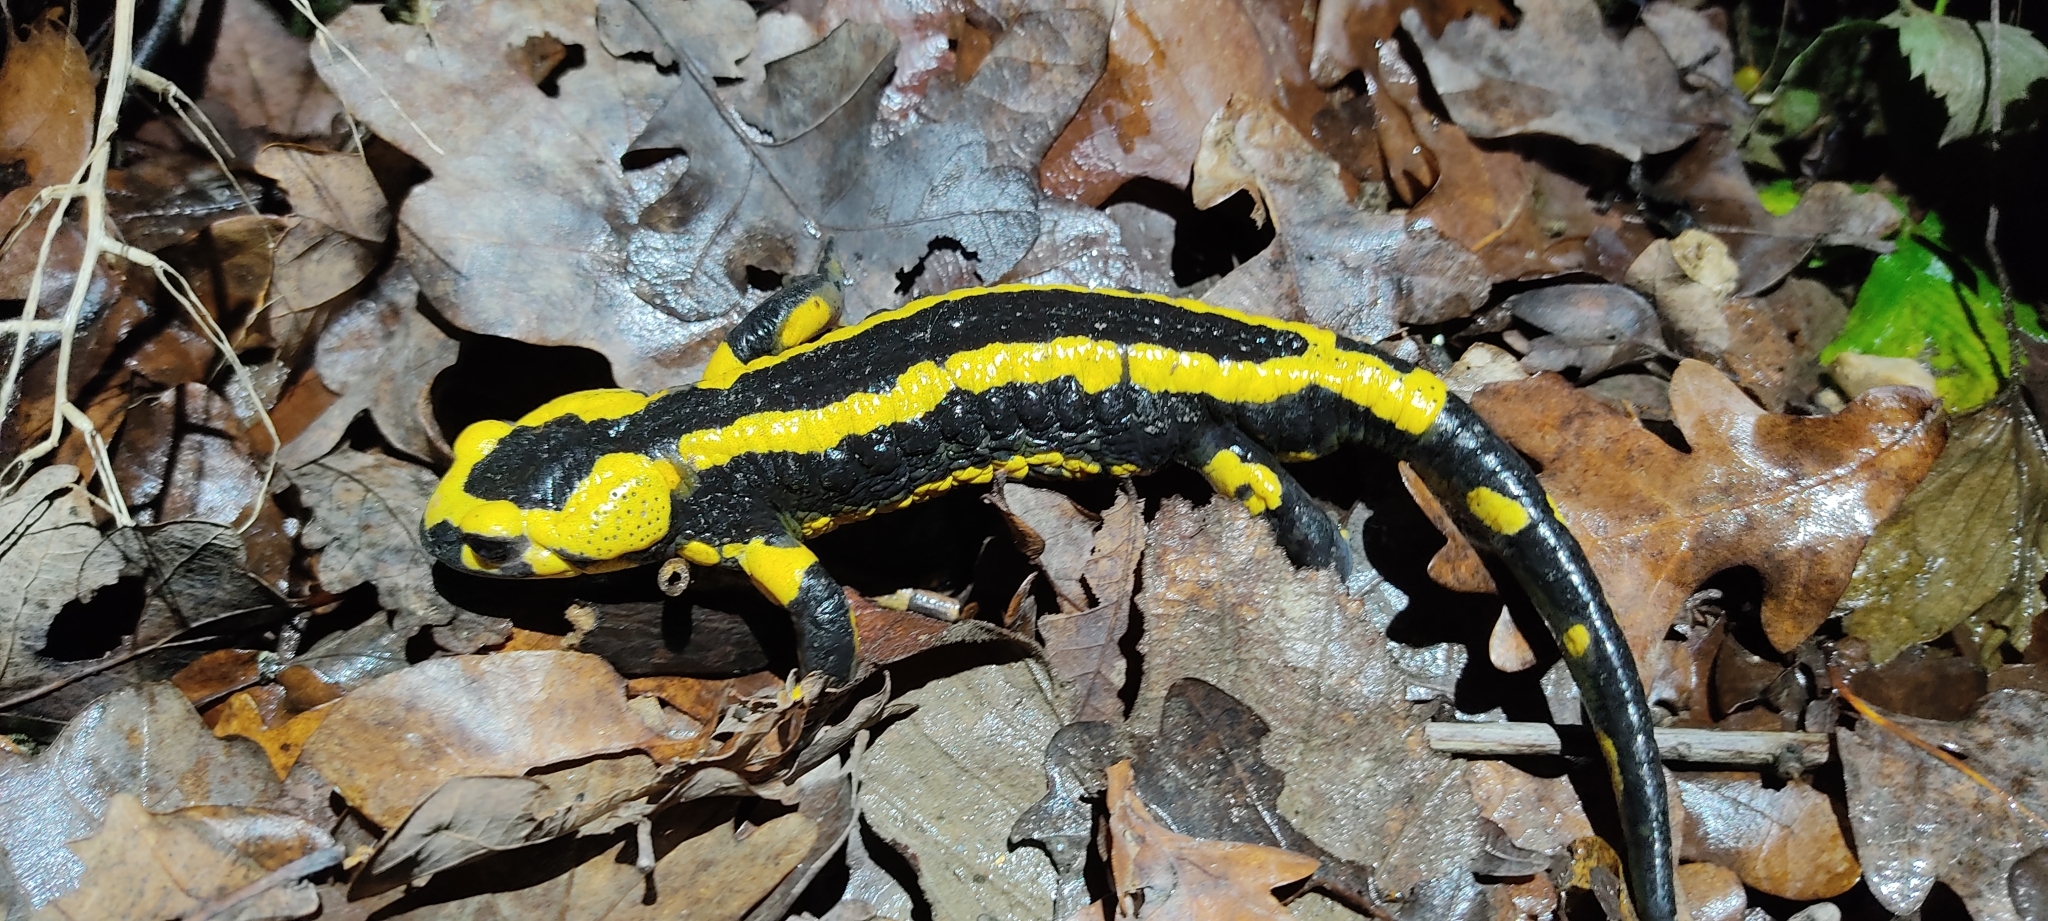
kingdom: Animalia
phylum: Chordata
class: Amphibia
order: Caudata
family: Salamandridae
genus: Salamandra
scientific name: Salamandra salamandra
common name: Fire salamander
